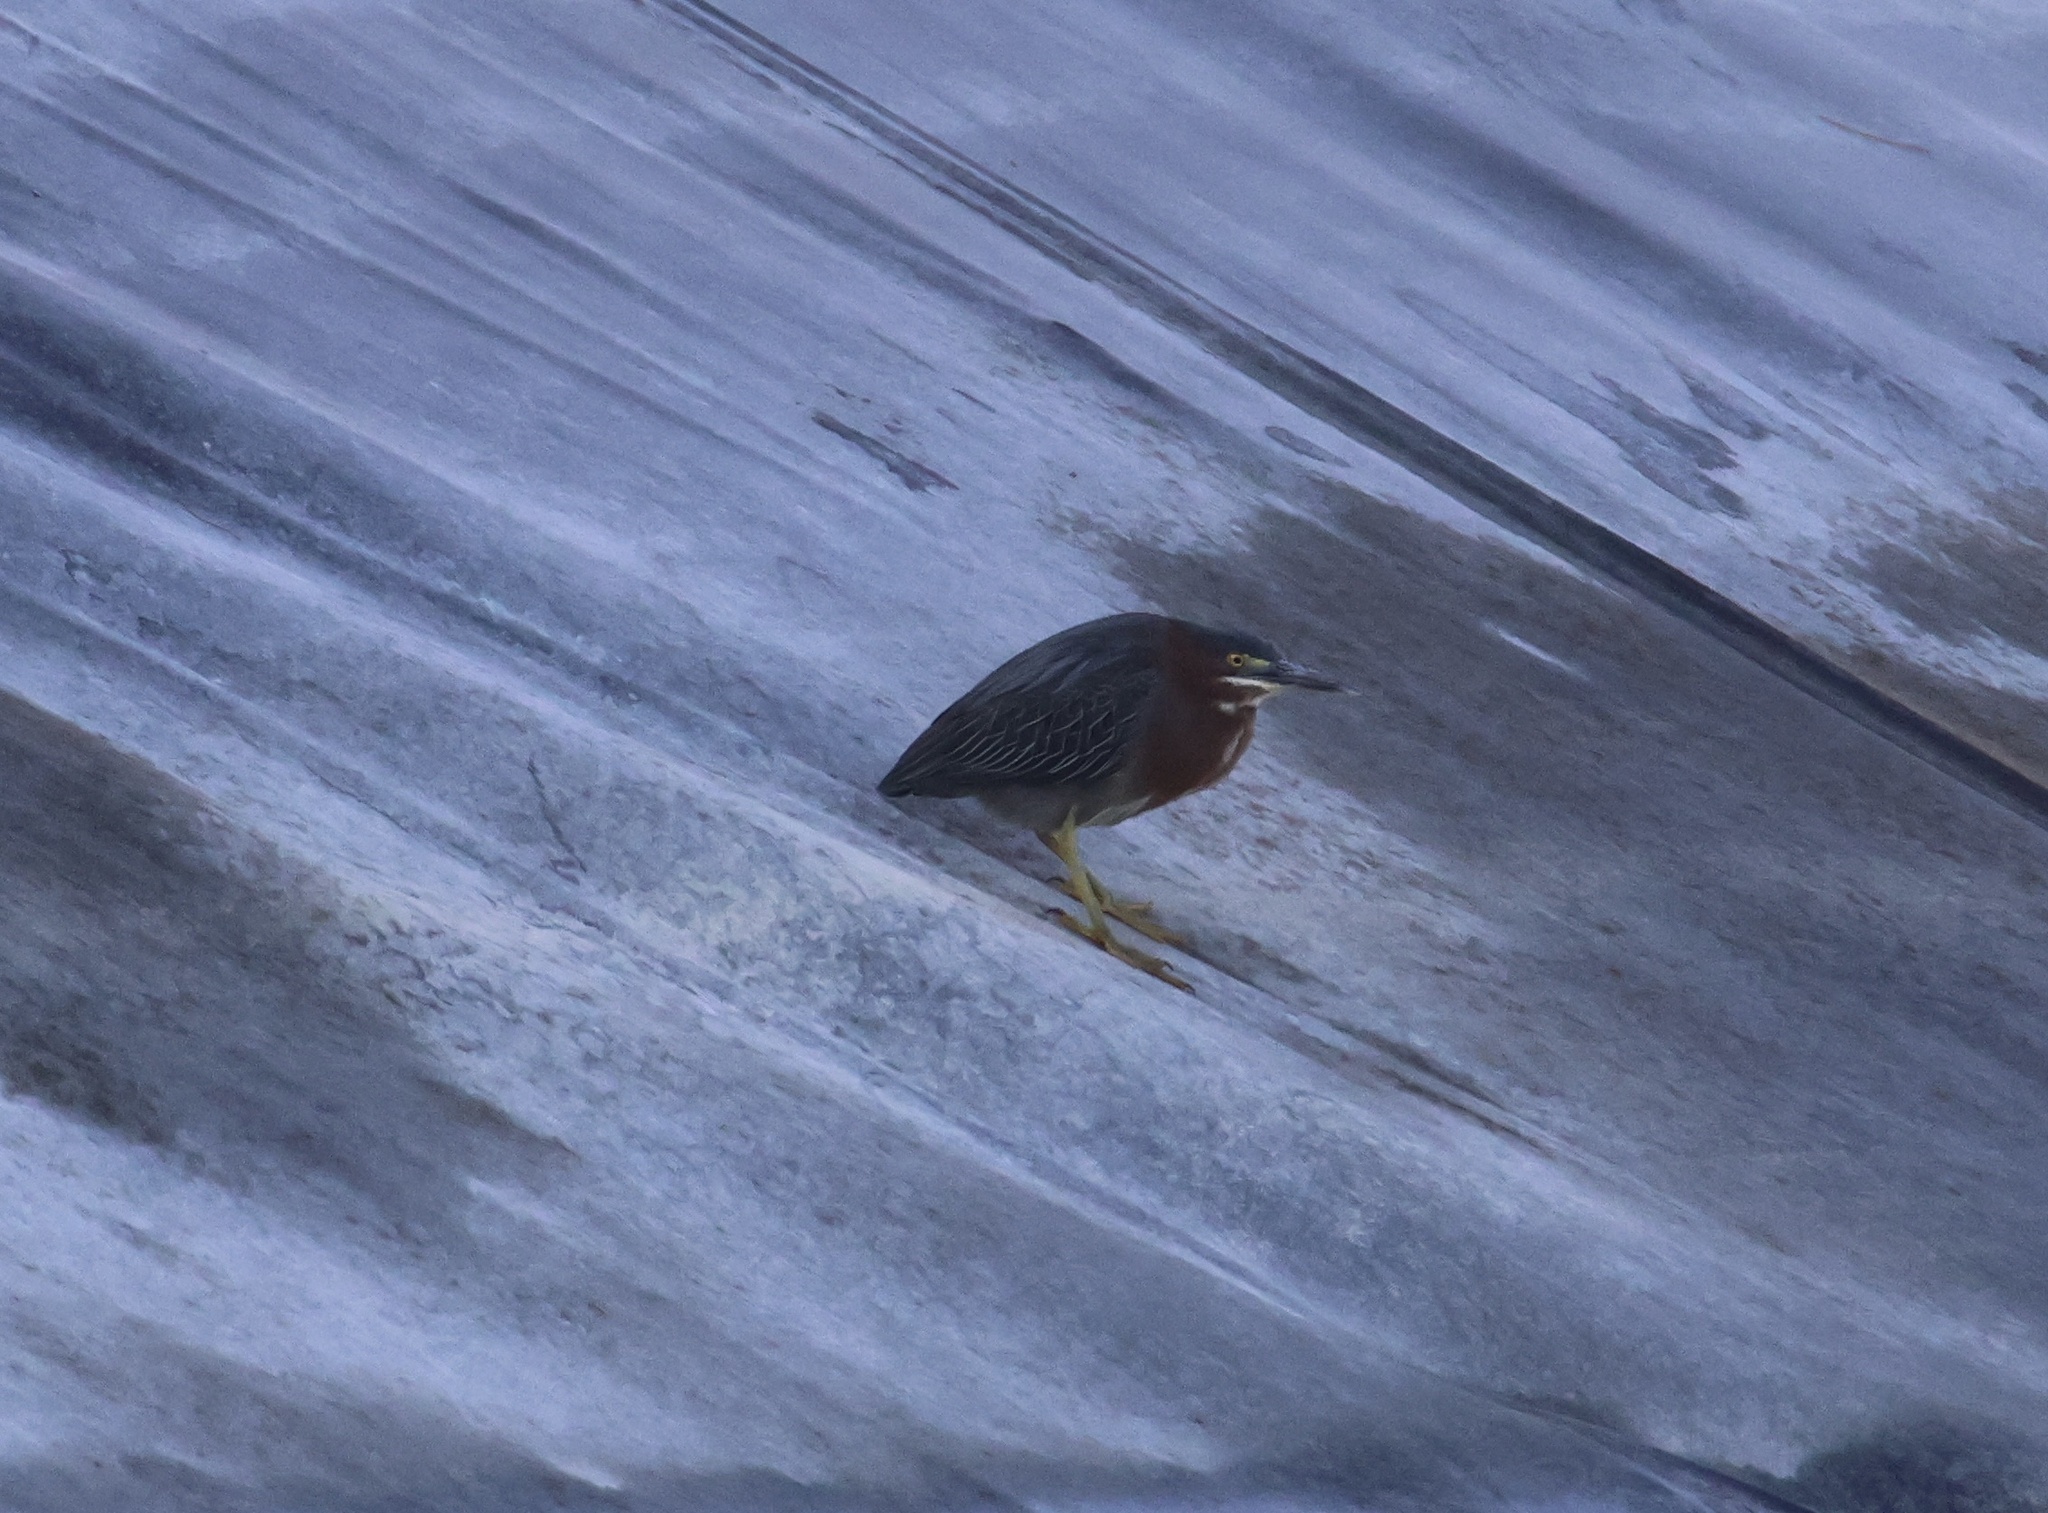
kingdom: Animalia
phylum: Chordata
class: Aves
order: Pelecaniformes
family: Ardeidae
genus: Butorides
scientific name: Butorides virescens
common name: Green heron
